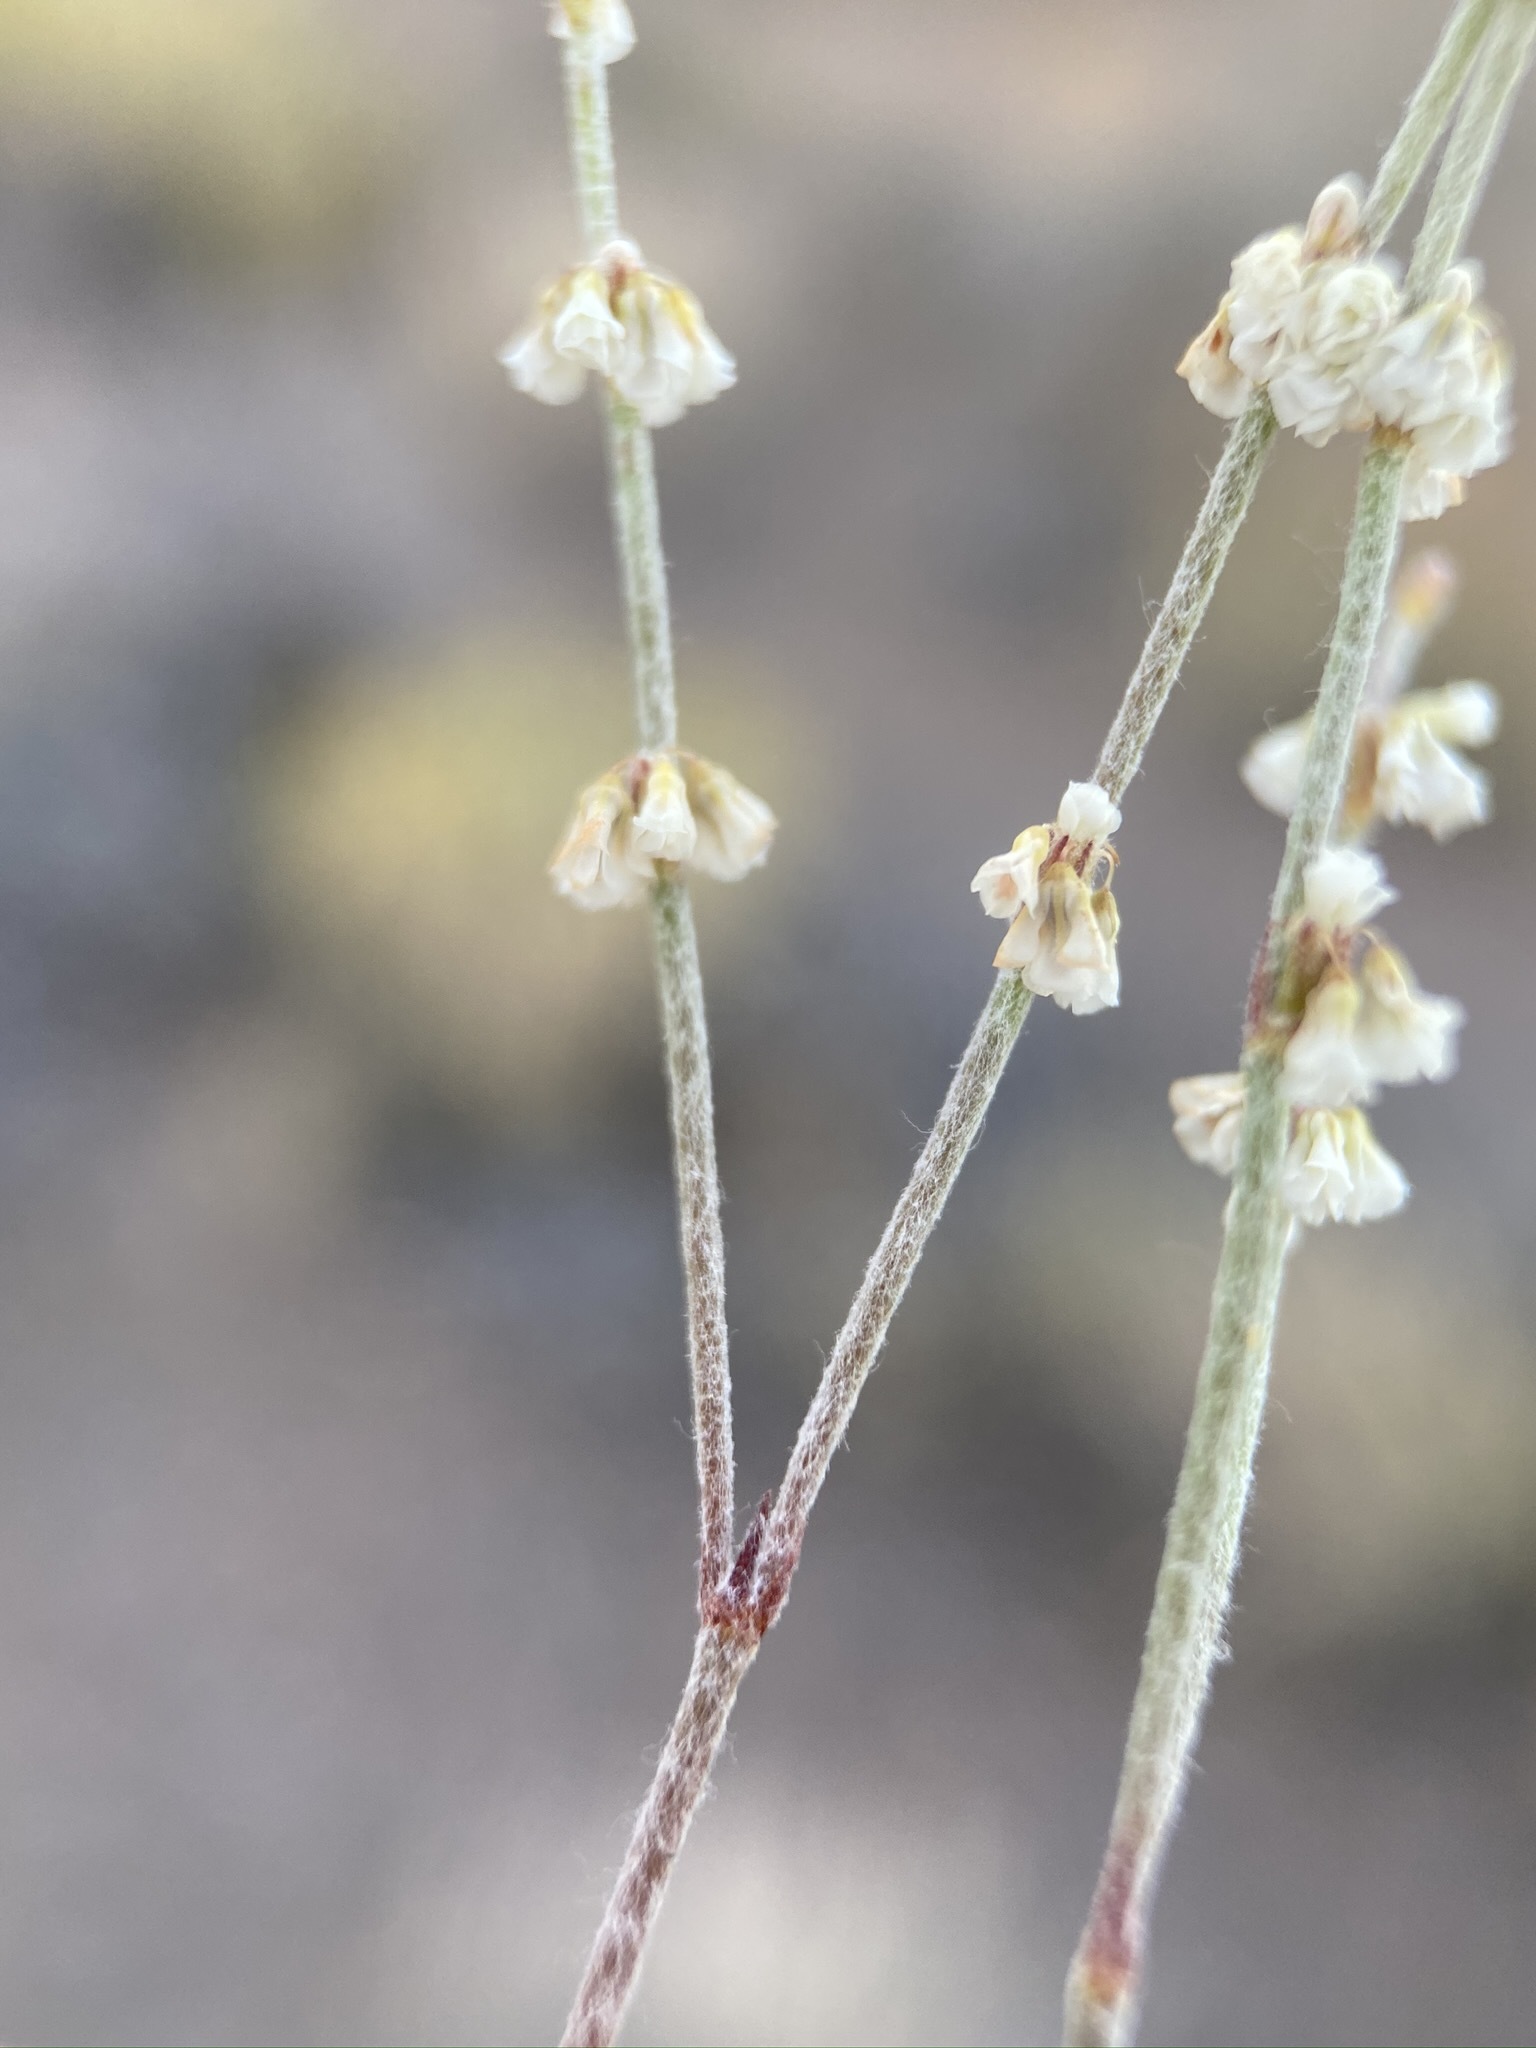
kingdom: Plantae
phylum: Tracheophyta
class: Magnoliopsida
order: Caryophyllales
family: Polygonaceae
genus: Eriogonum
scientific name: Eriogonum palmerianum
